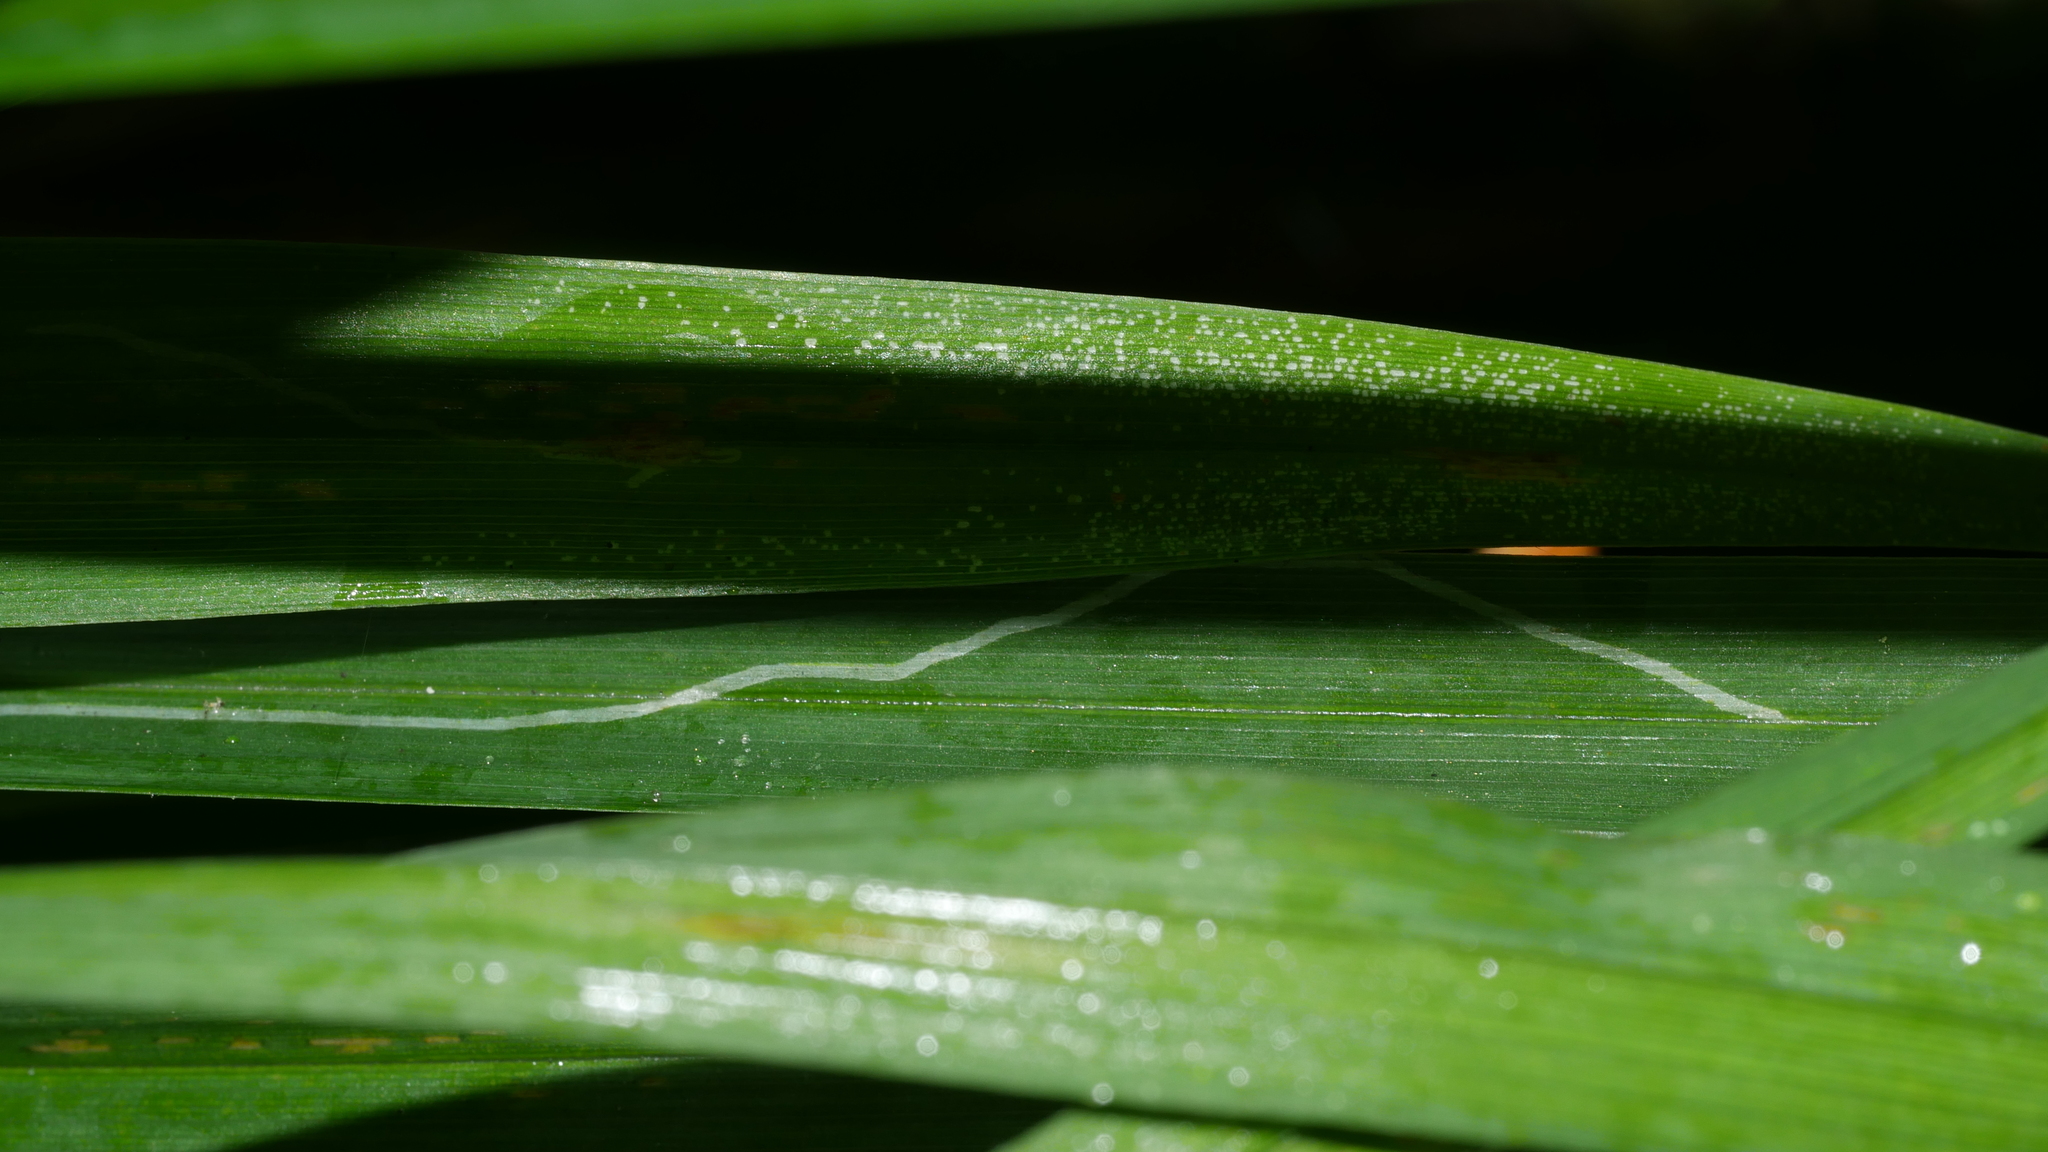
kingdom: Animalia
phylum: Arthropoda
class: Insecta
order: Diptera
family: Agromyzidae
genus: Ophiomyia
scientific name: Ophiomyia kwansonis
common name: Daylily leafminer
